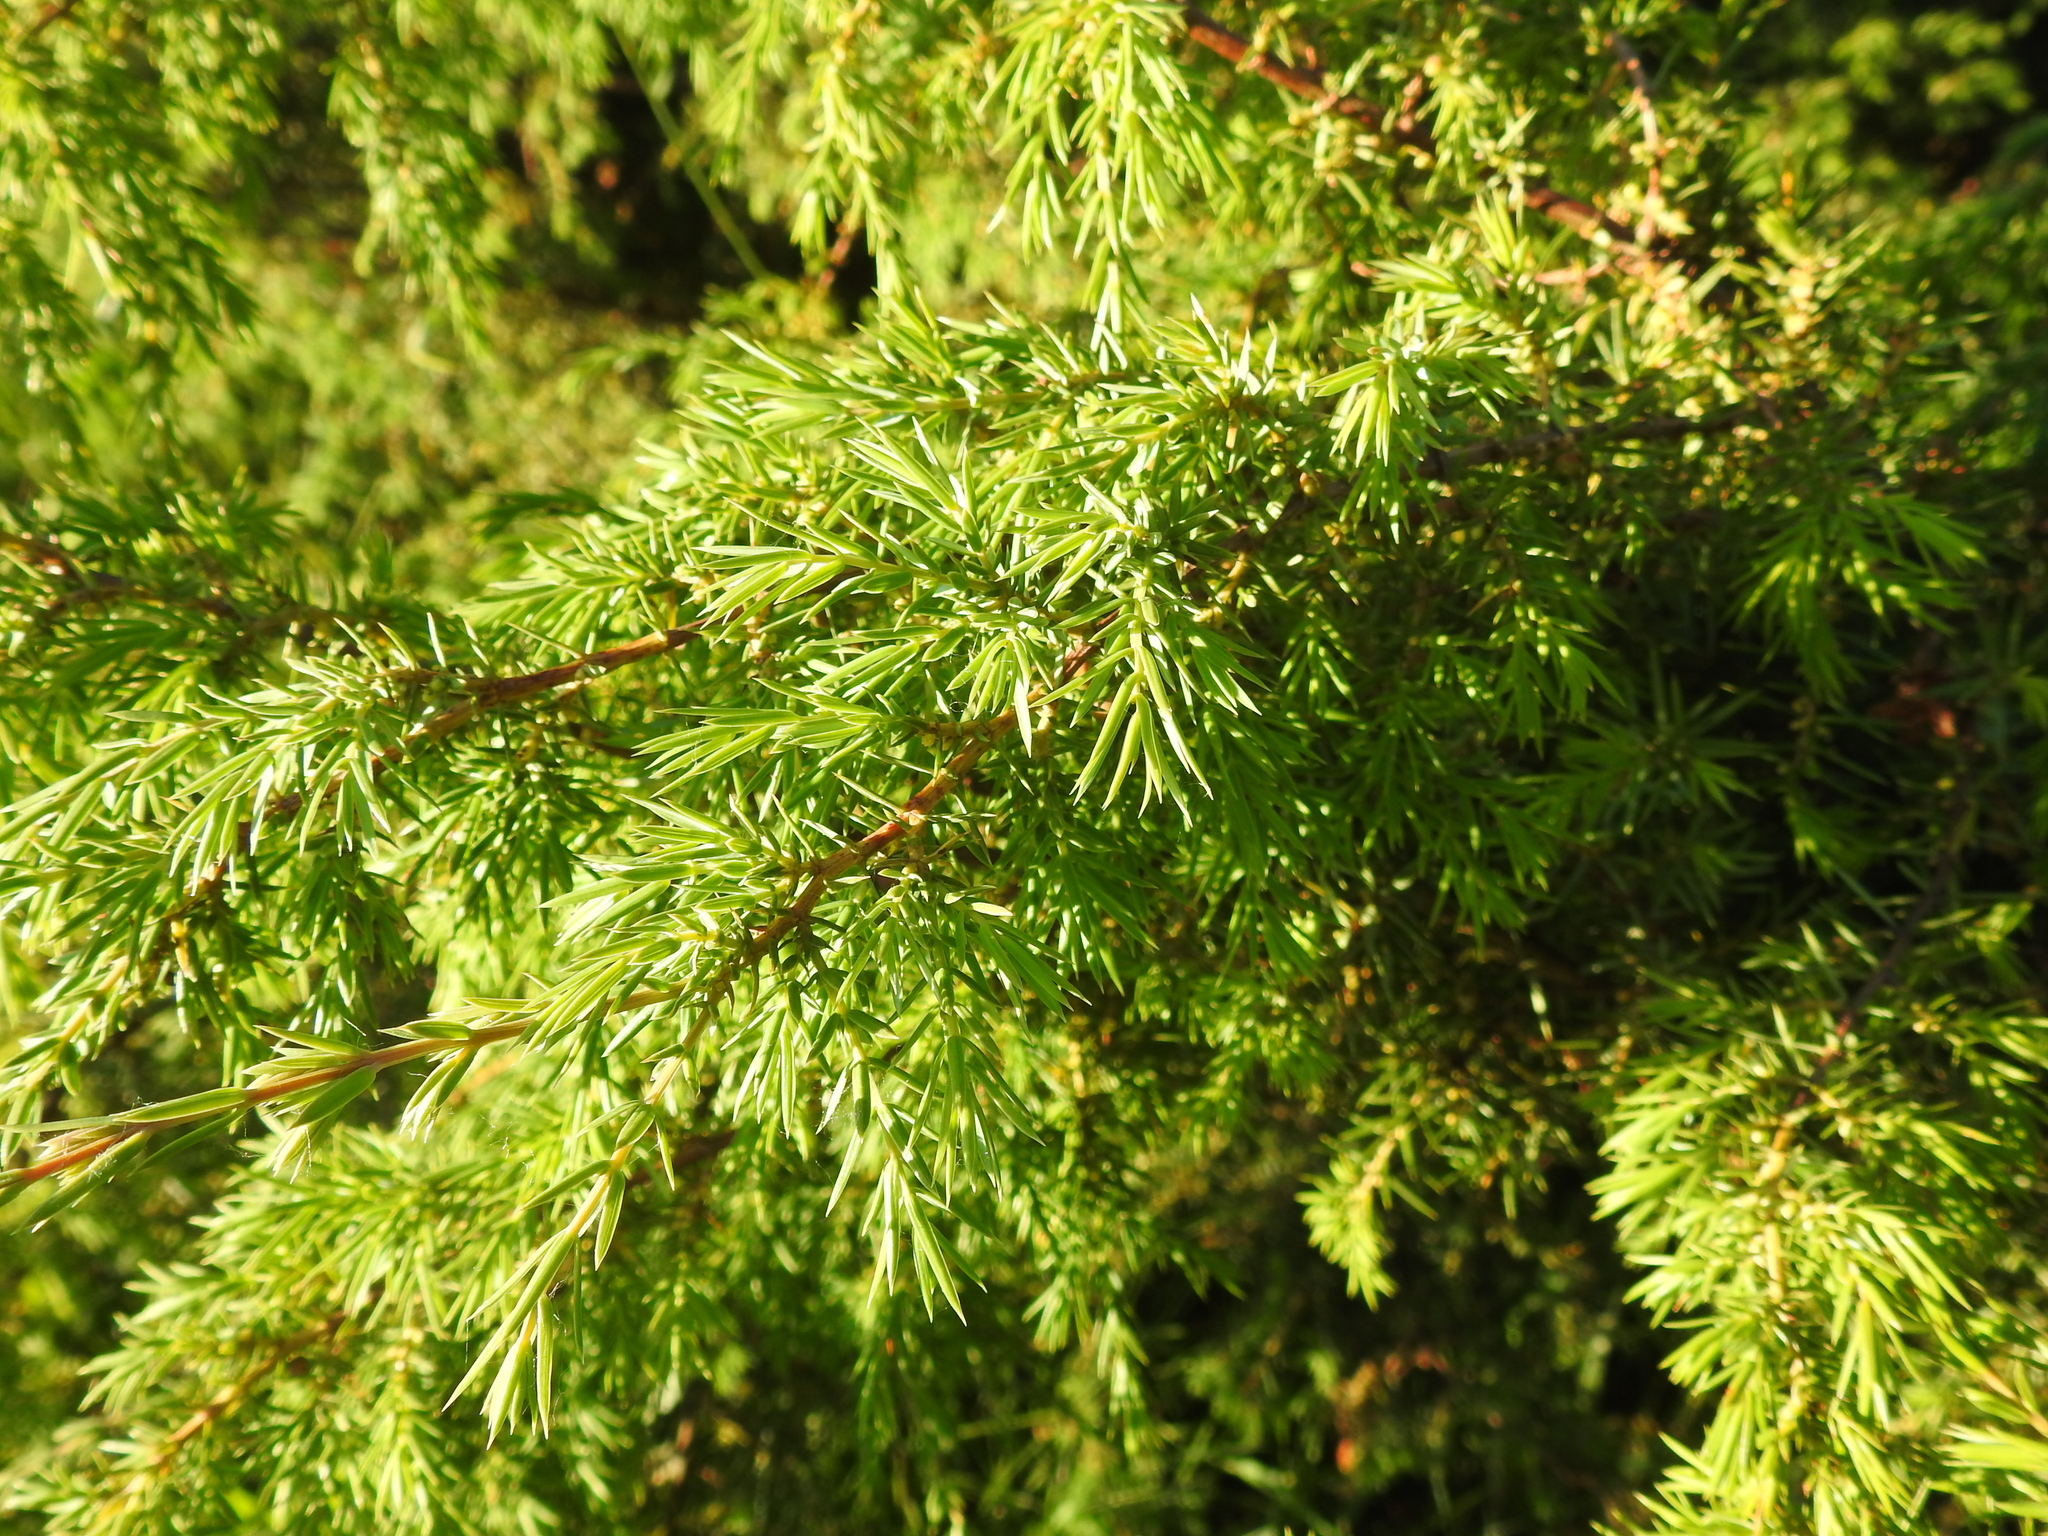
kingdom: Plantae
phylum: Tracheophyta
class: Pinopsida
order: Pinales
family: Cupressaceae
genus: Juniperus
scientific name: Juniperus communis
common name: Common juniper
